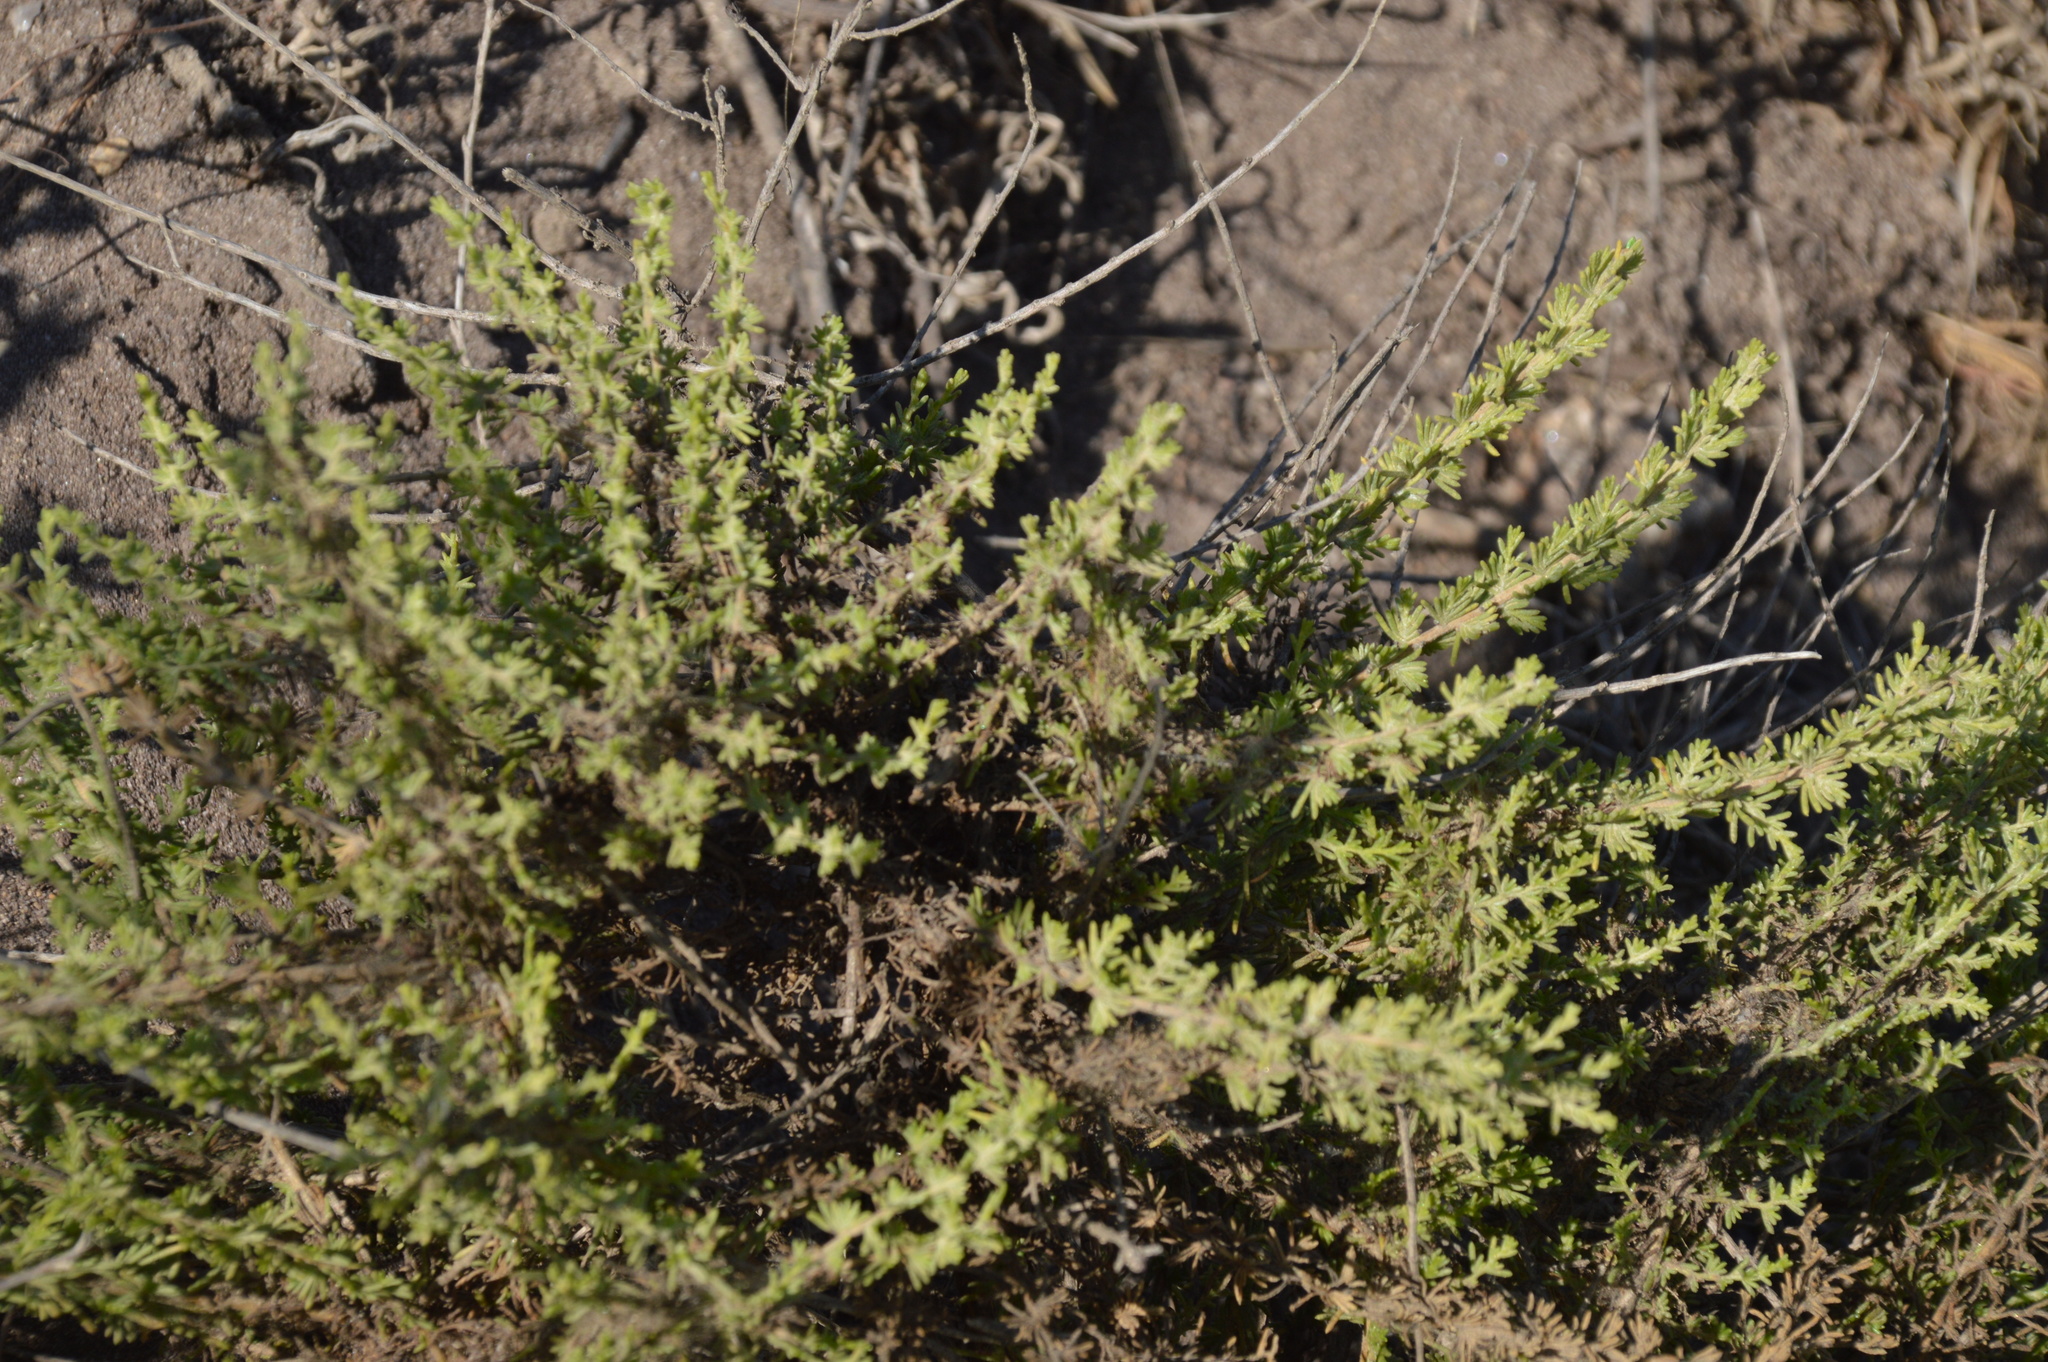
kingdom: Plantae
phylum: Tracheophyta
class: Magnoliopsida
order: Asterales
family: Asteraceae
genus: Ericameria
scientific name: Ericameria ericoides
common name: California goldenbush
